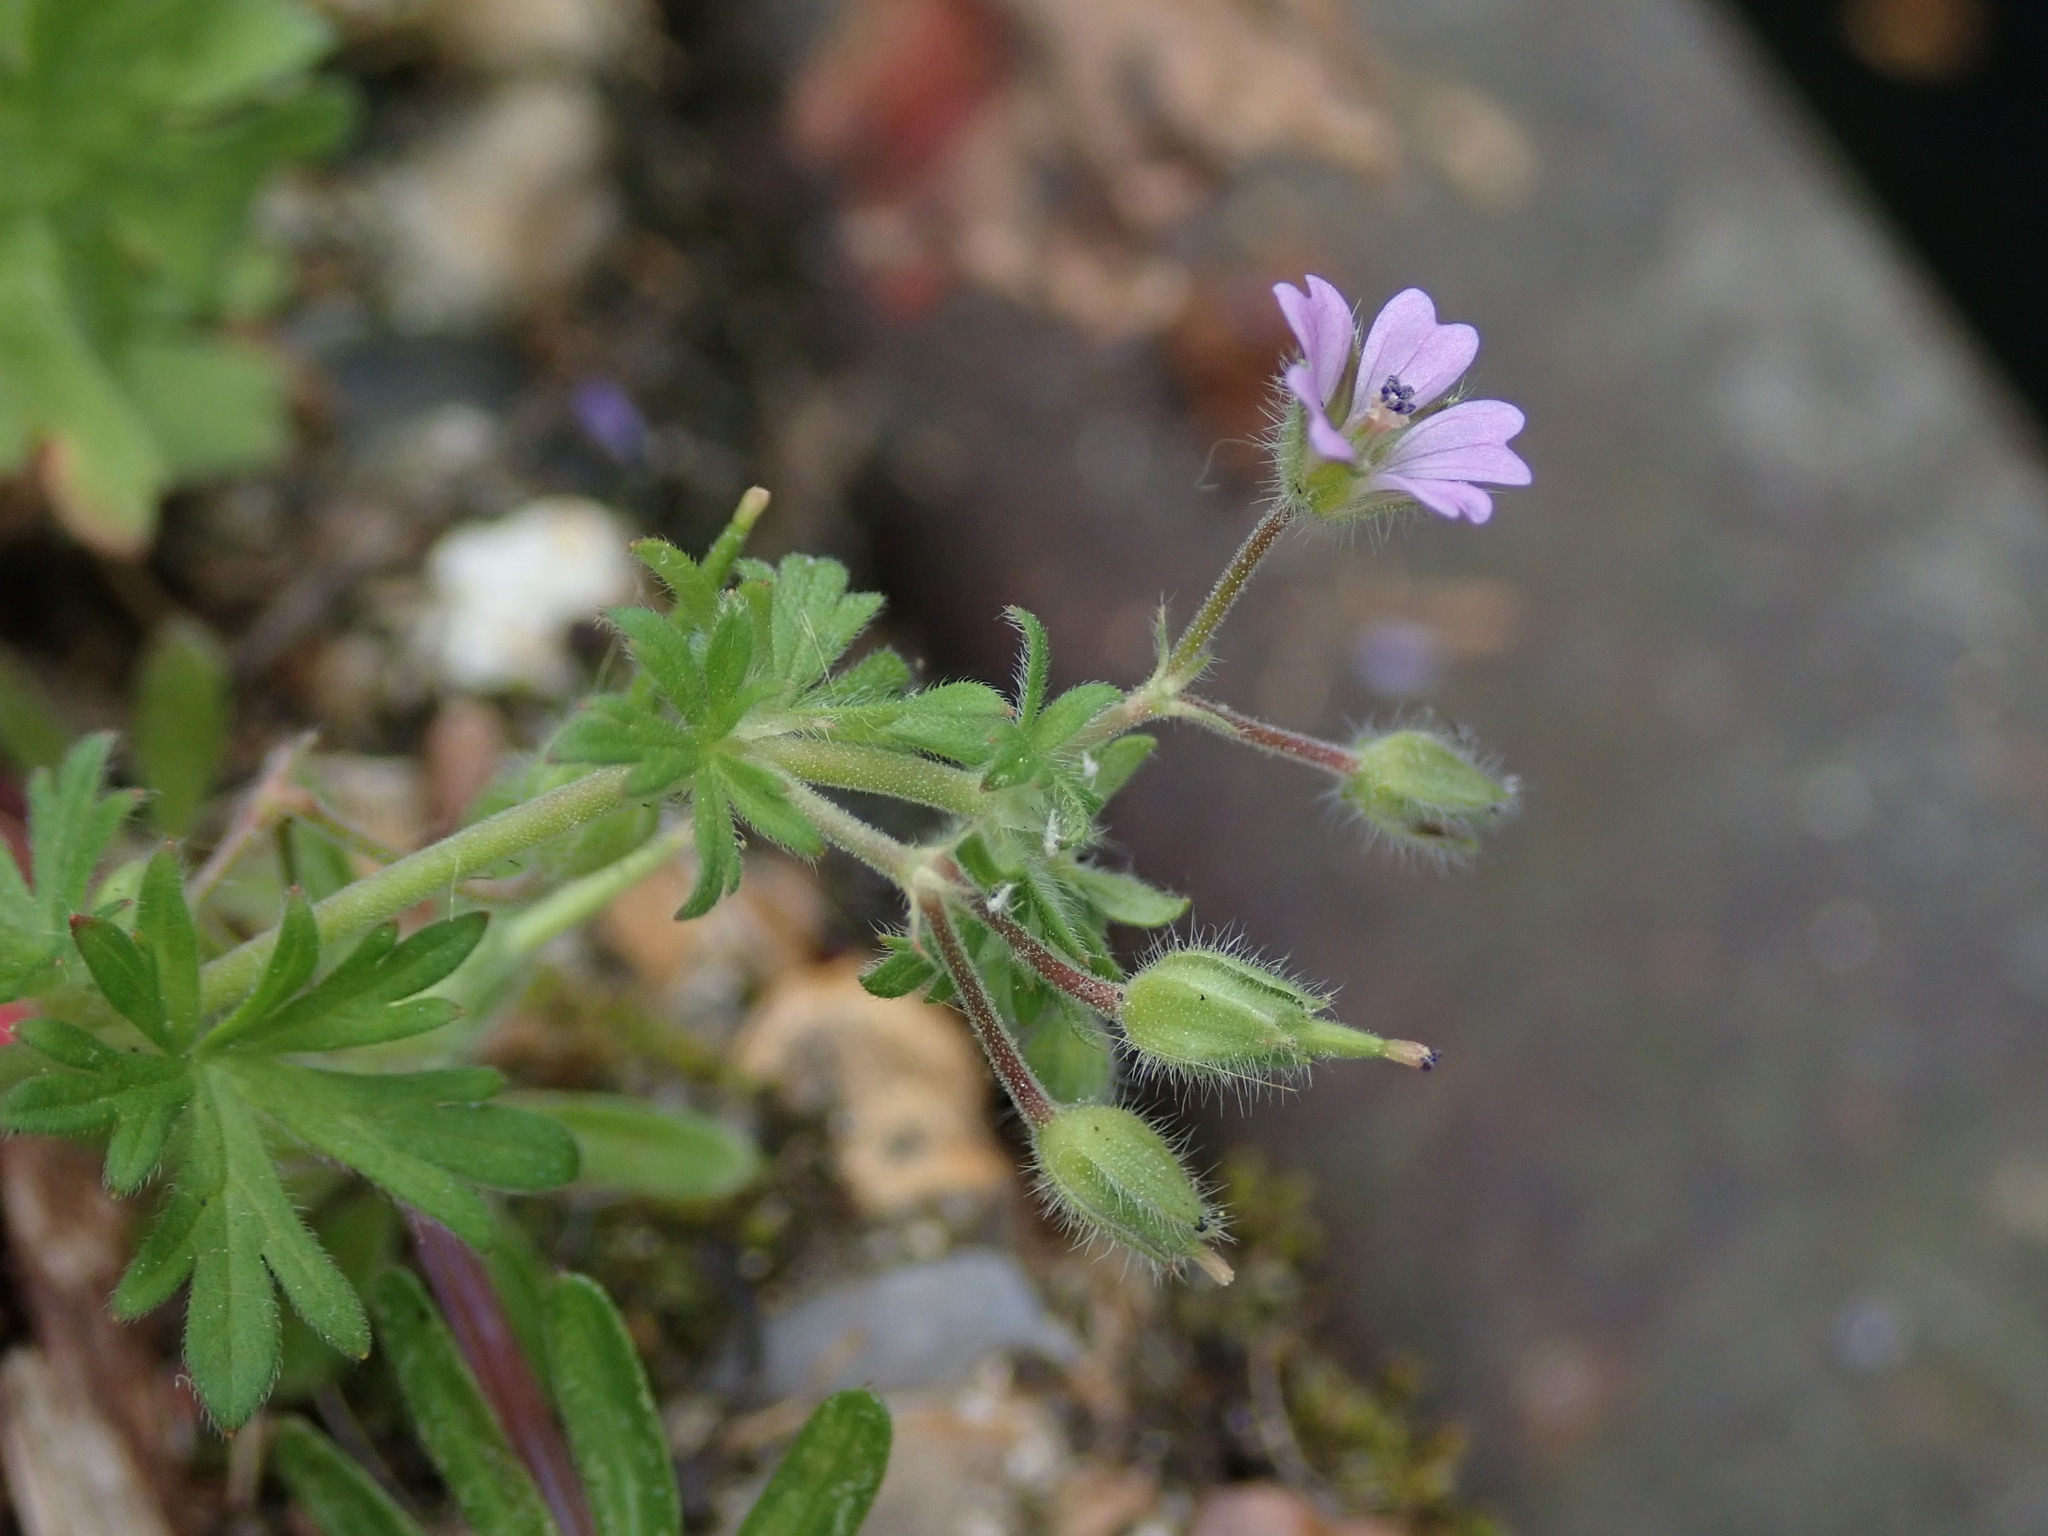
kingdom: Plantae
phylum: Tracheophyta
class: Magnoliopsida
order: Geraniales
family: Geraniaceae
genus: Geranium
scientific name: Geranium pusillum
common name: Small geranium
